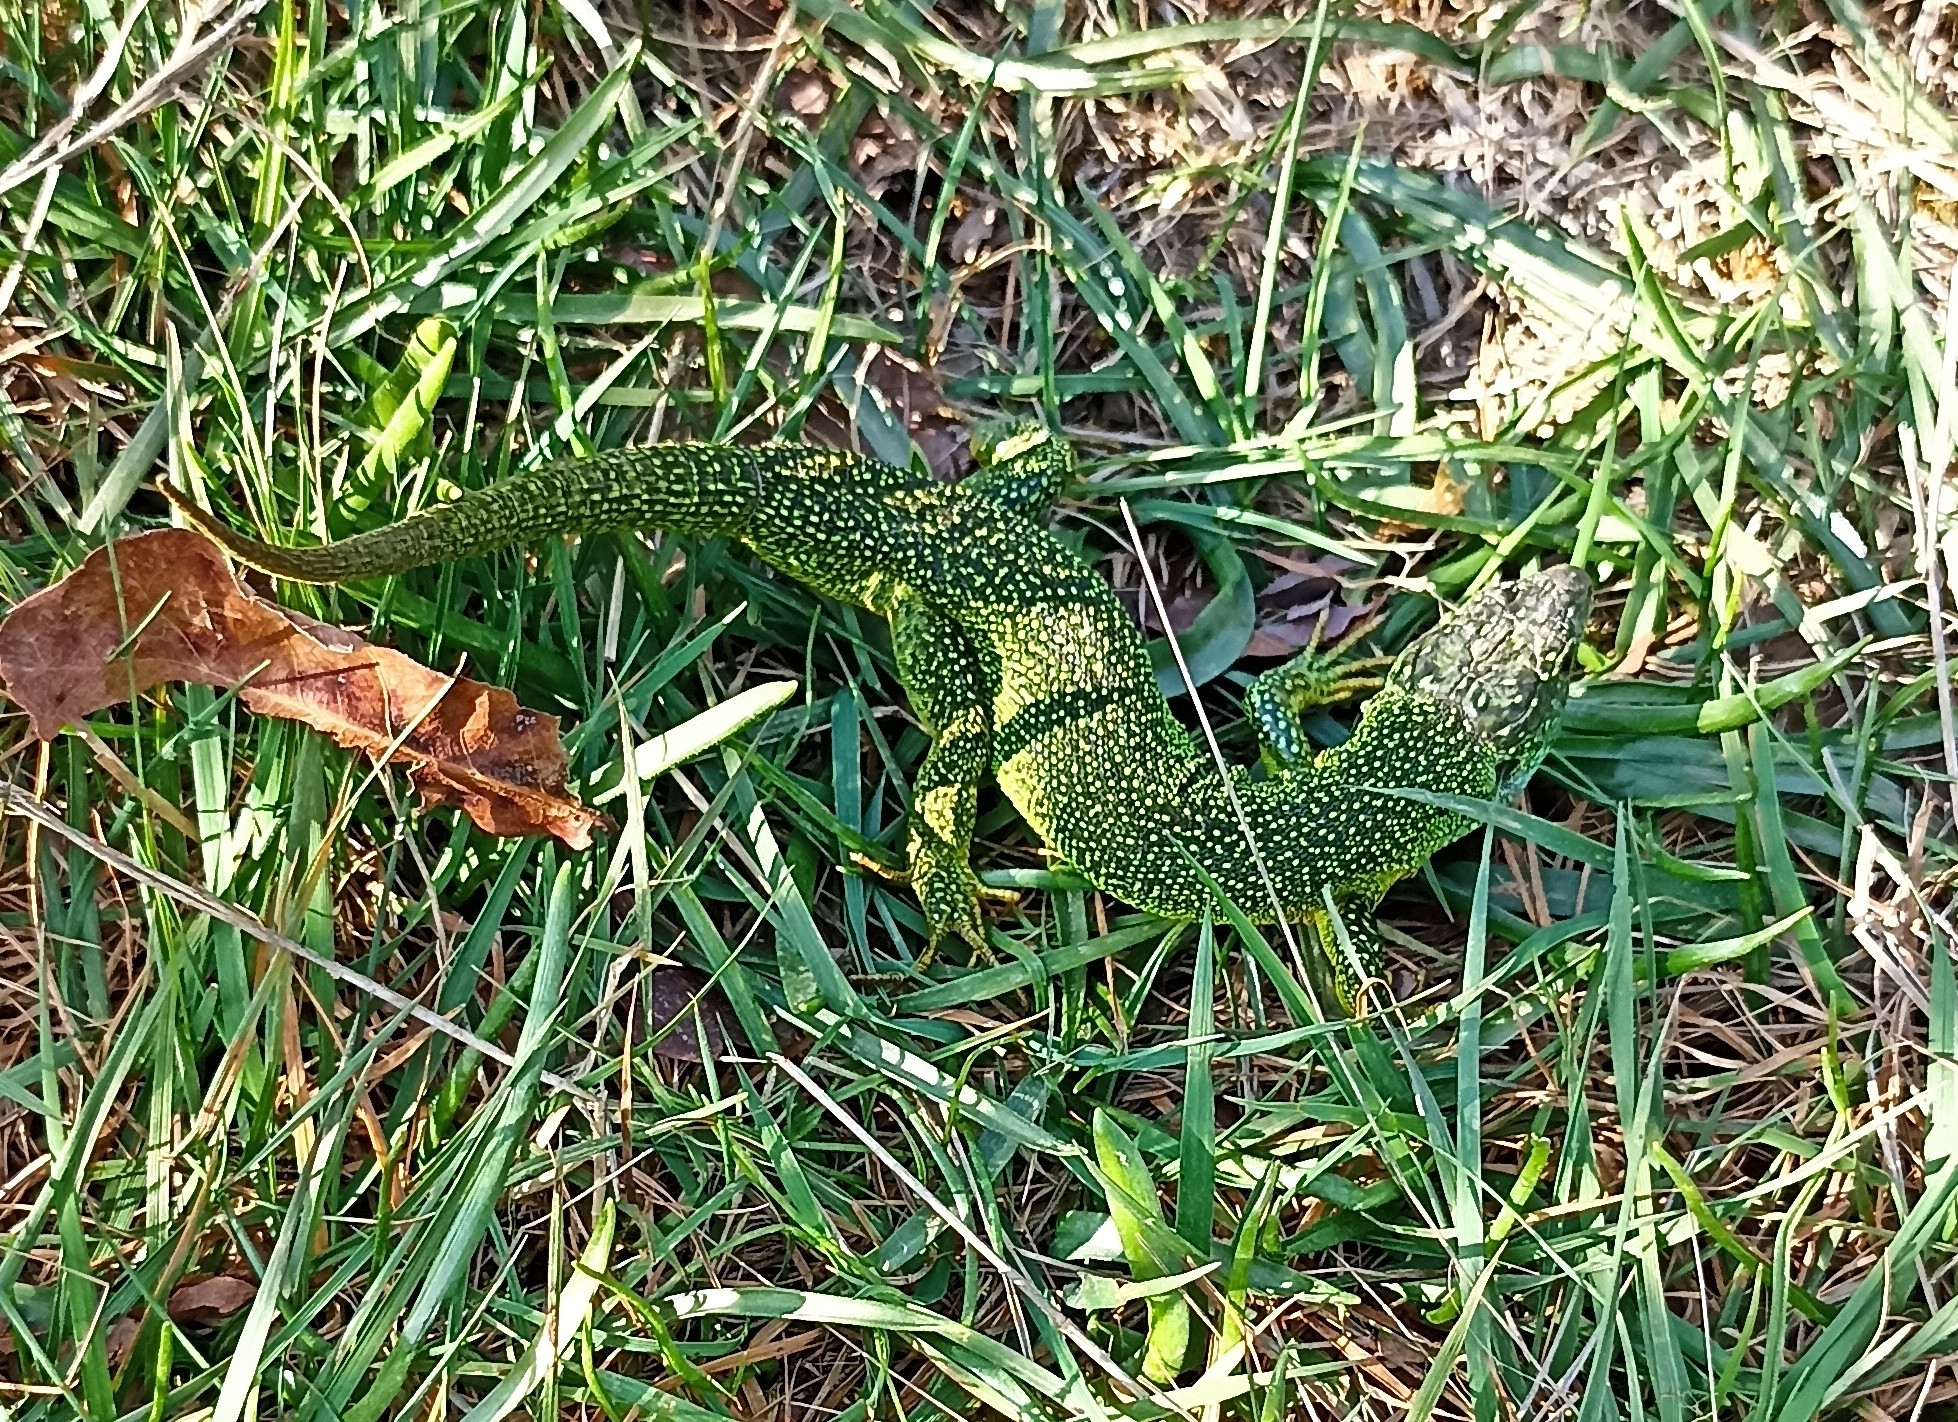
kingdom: Animalia
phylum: Chordata
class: Squamata
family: Lacertidae
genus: Lacerta
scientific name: Lacerta bilineata
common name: Western green lizard
